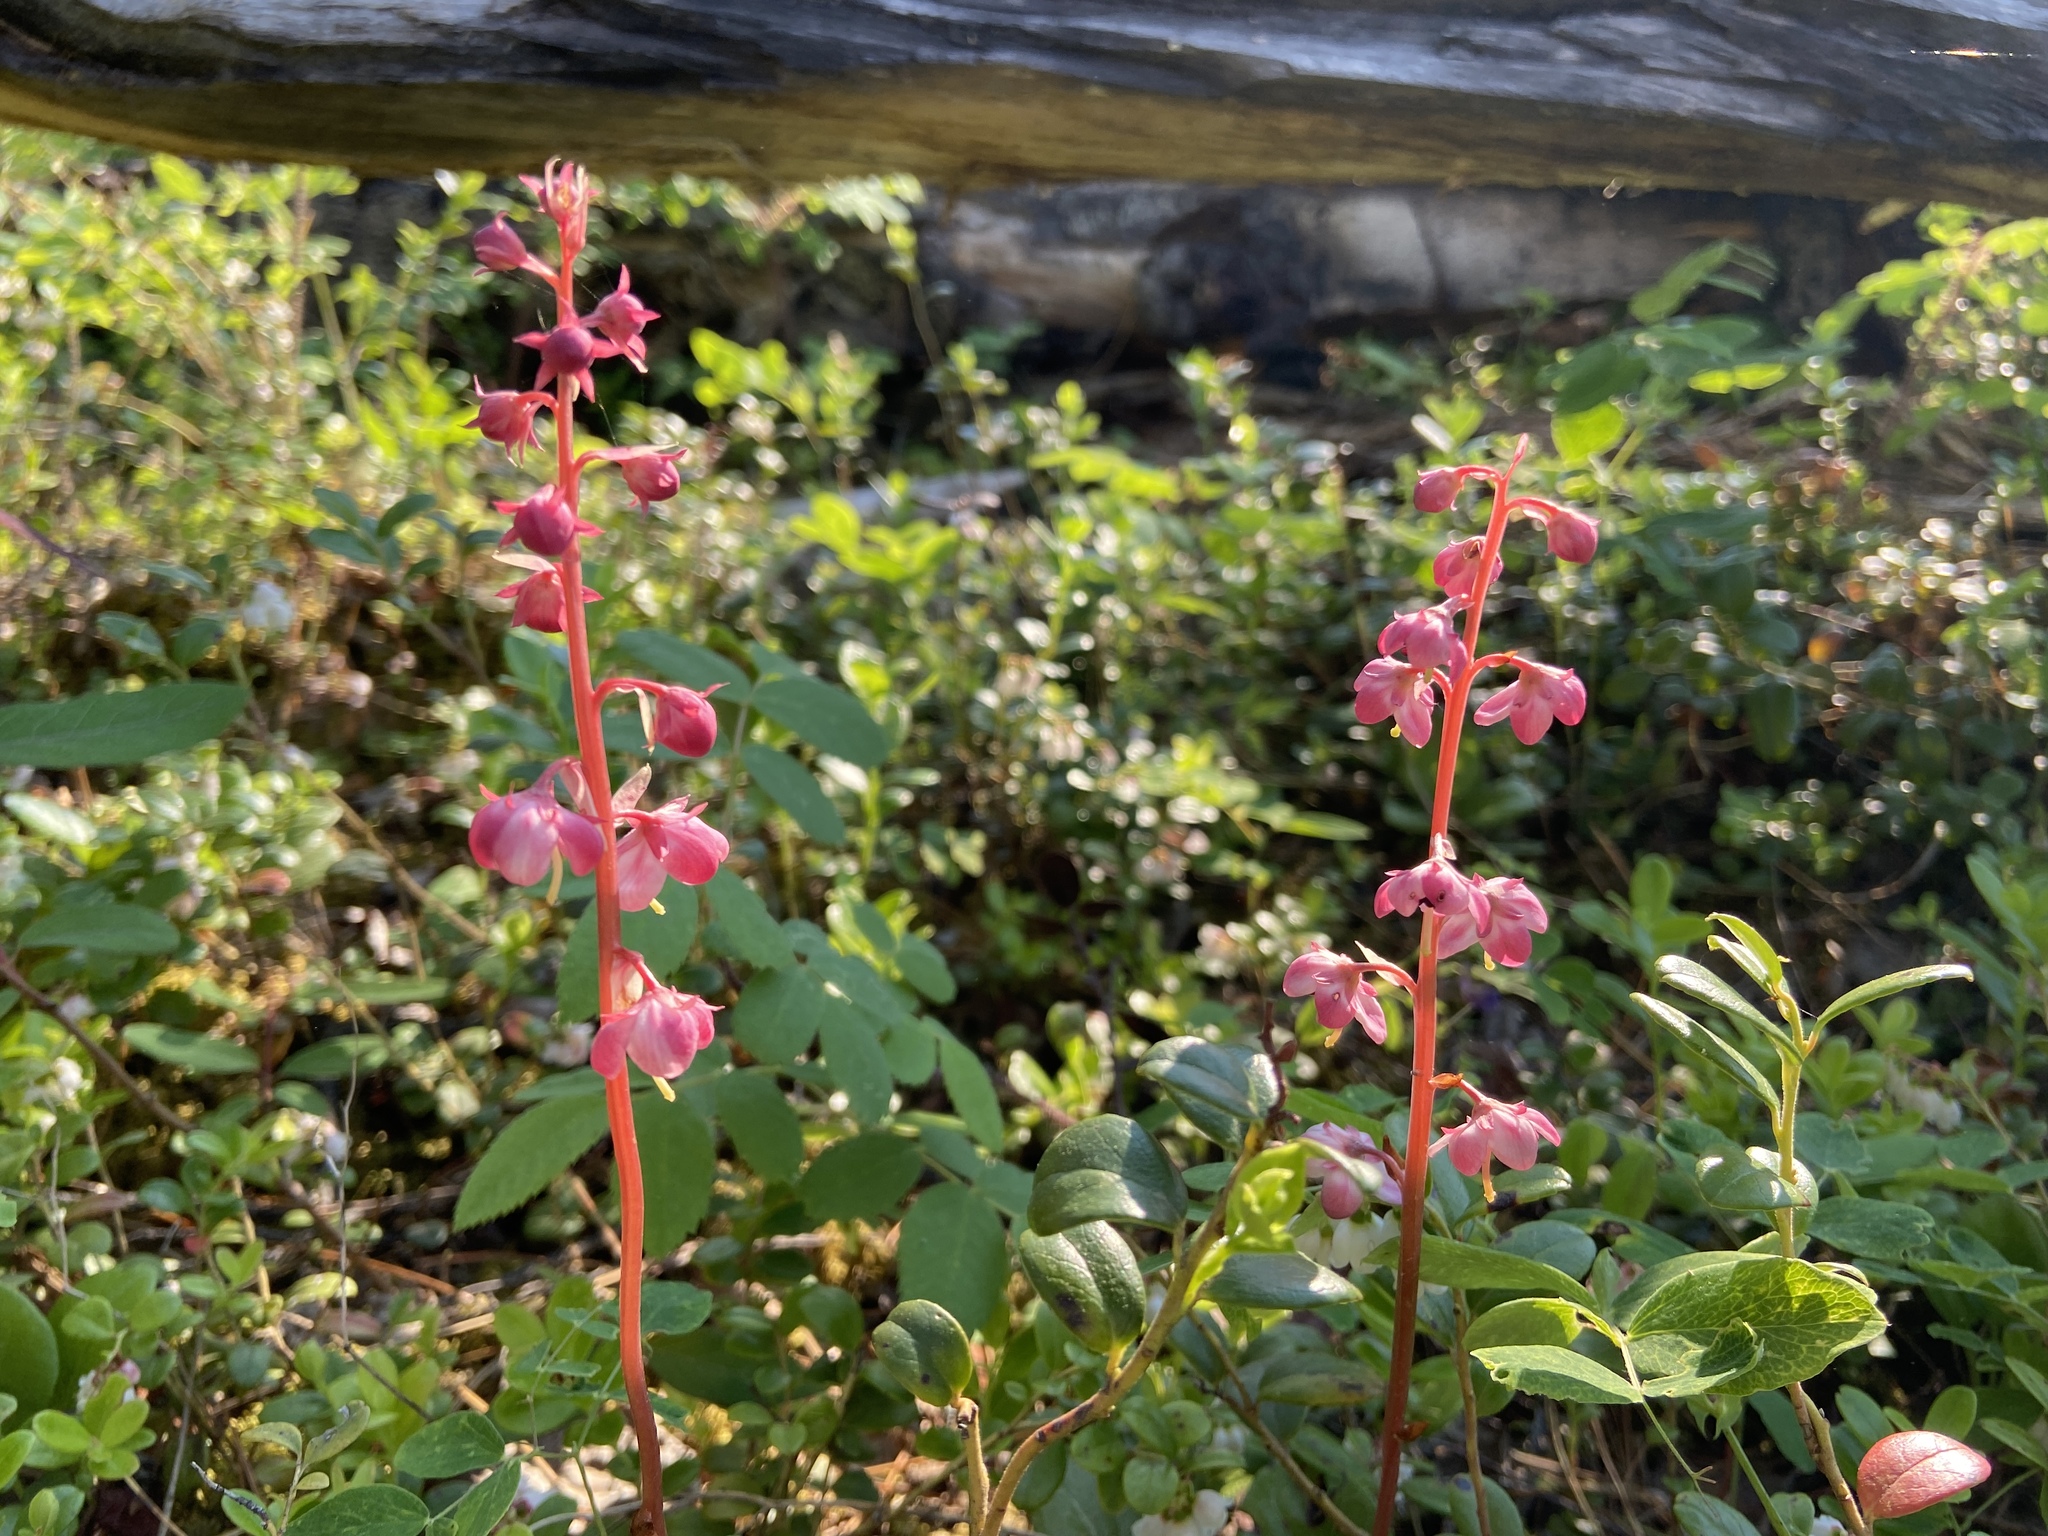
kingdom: Plantae
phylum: Tracheophyta
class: Magnoliopsida
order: Ericales
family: Ericaceae
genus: Pyrola
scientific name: Pyrola asarifolia
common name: Bog wintergreen
